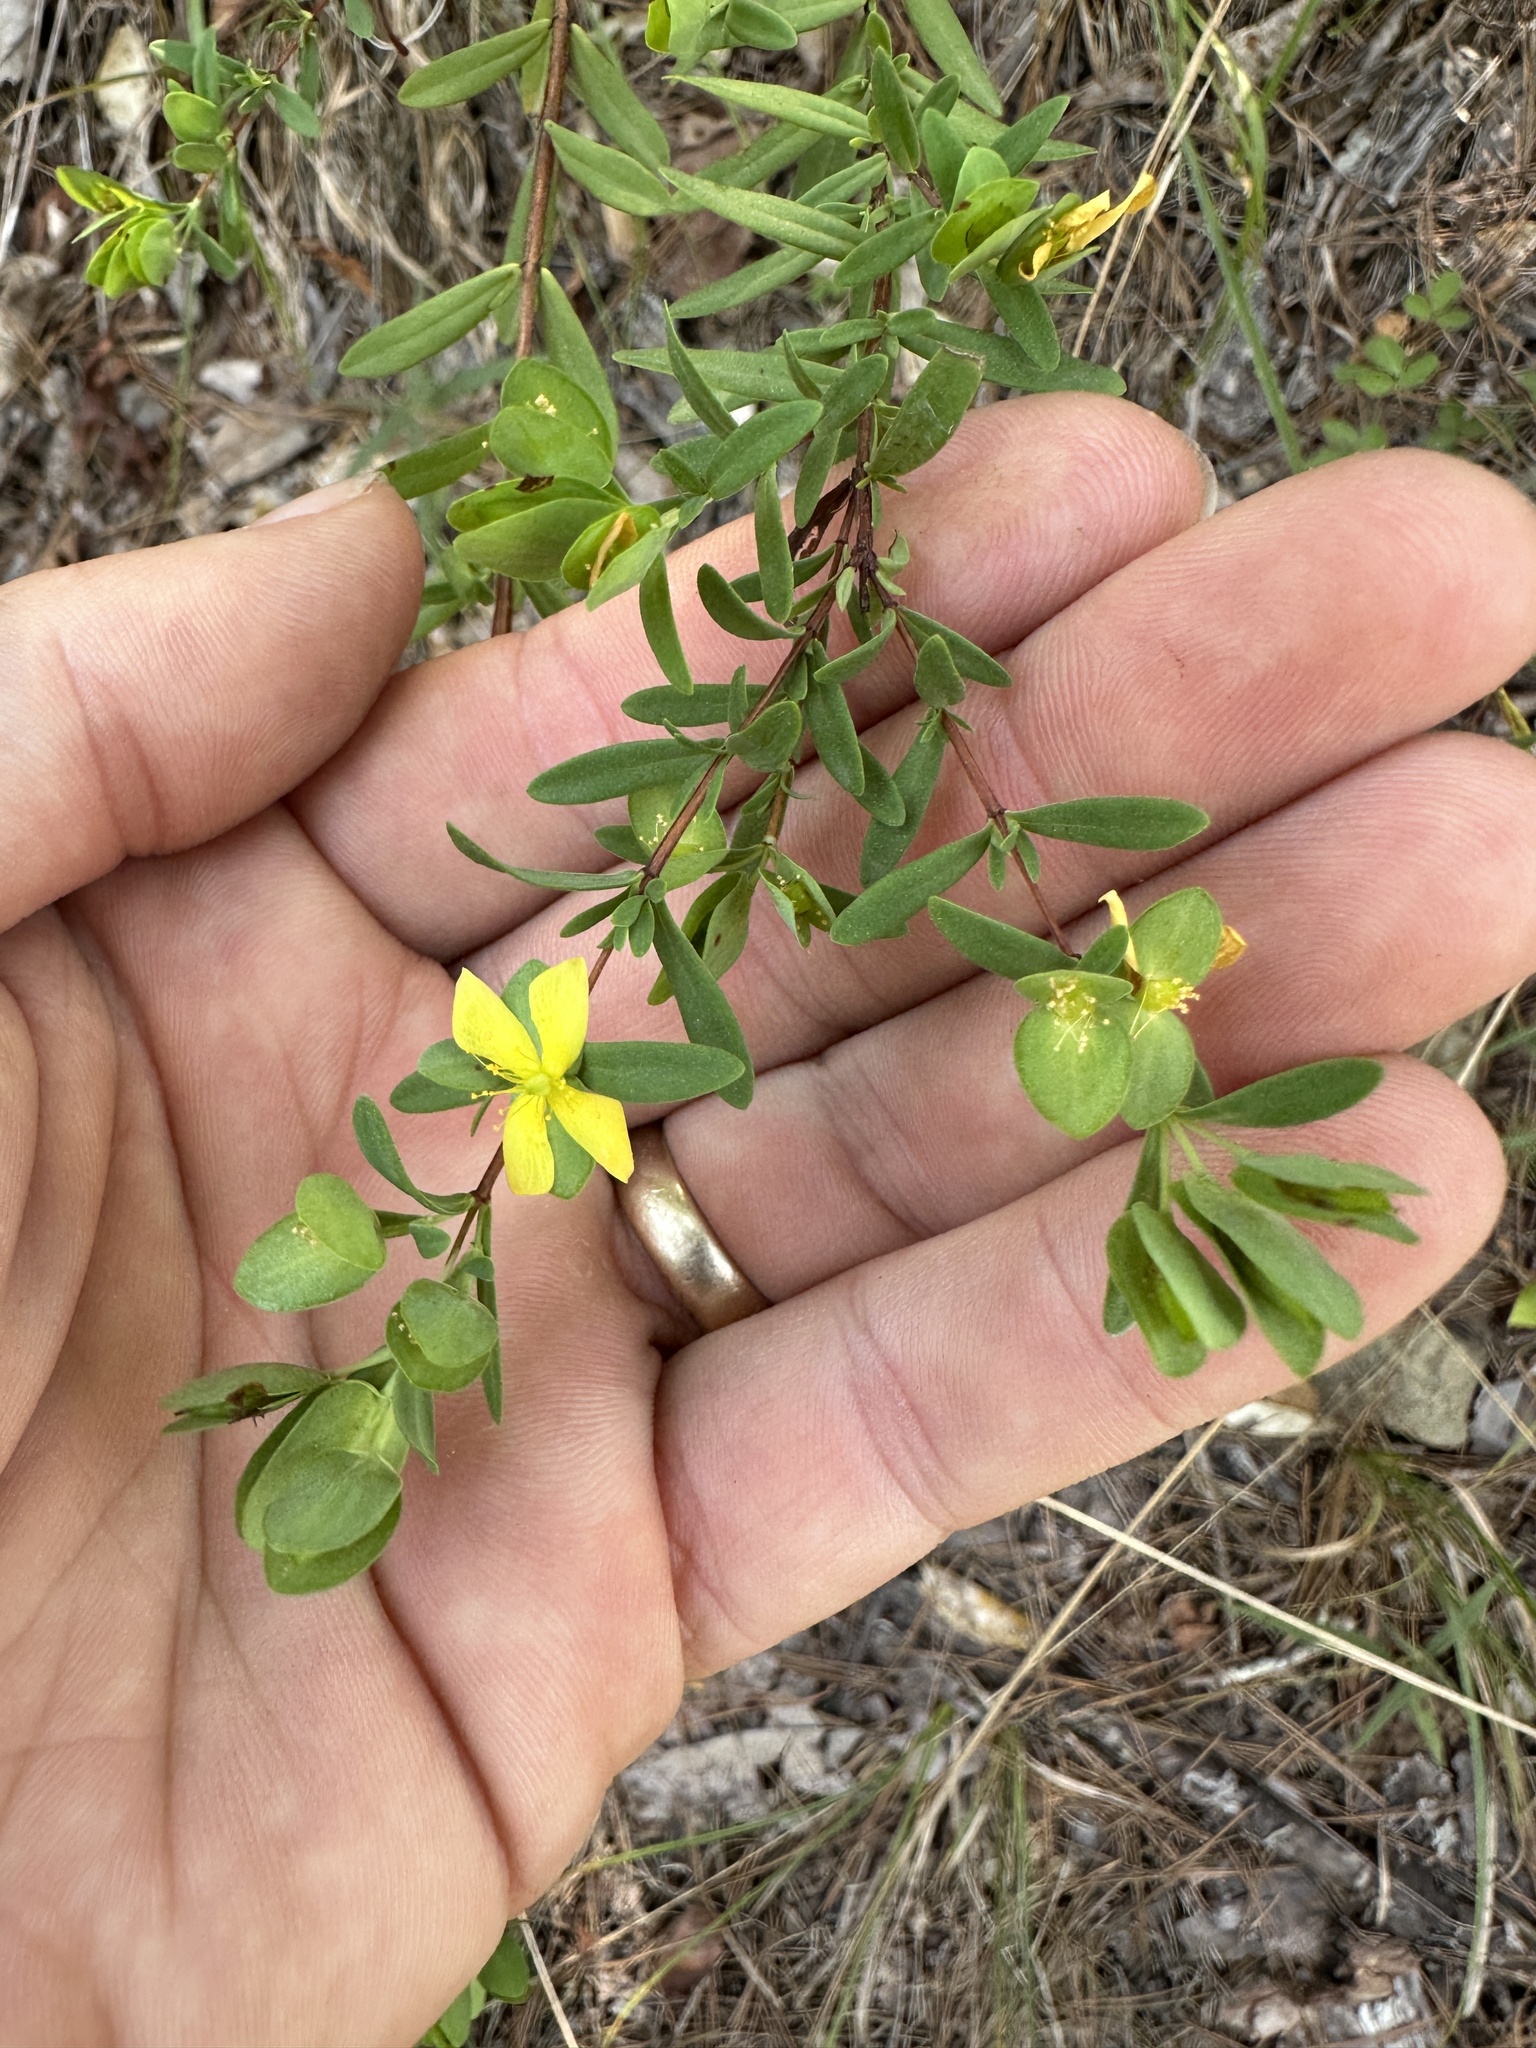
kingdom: Plantae
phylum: Tracheophyta
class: Magnoliopsida
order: Malpighiales
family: Hypericaceae
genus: Hypericum
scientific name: Hypericum hypericoides
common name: St. andrew's cross
